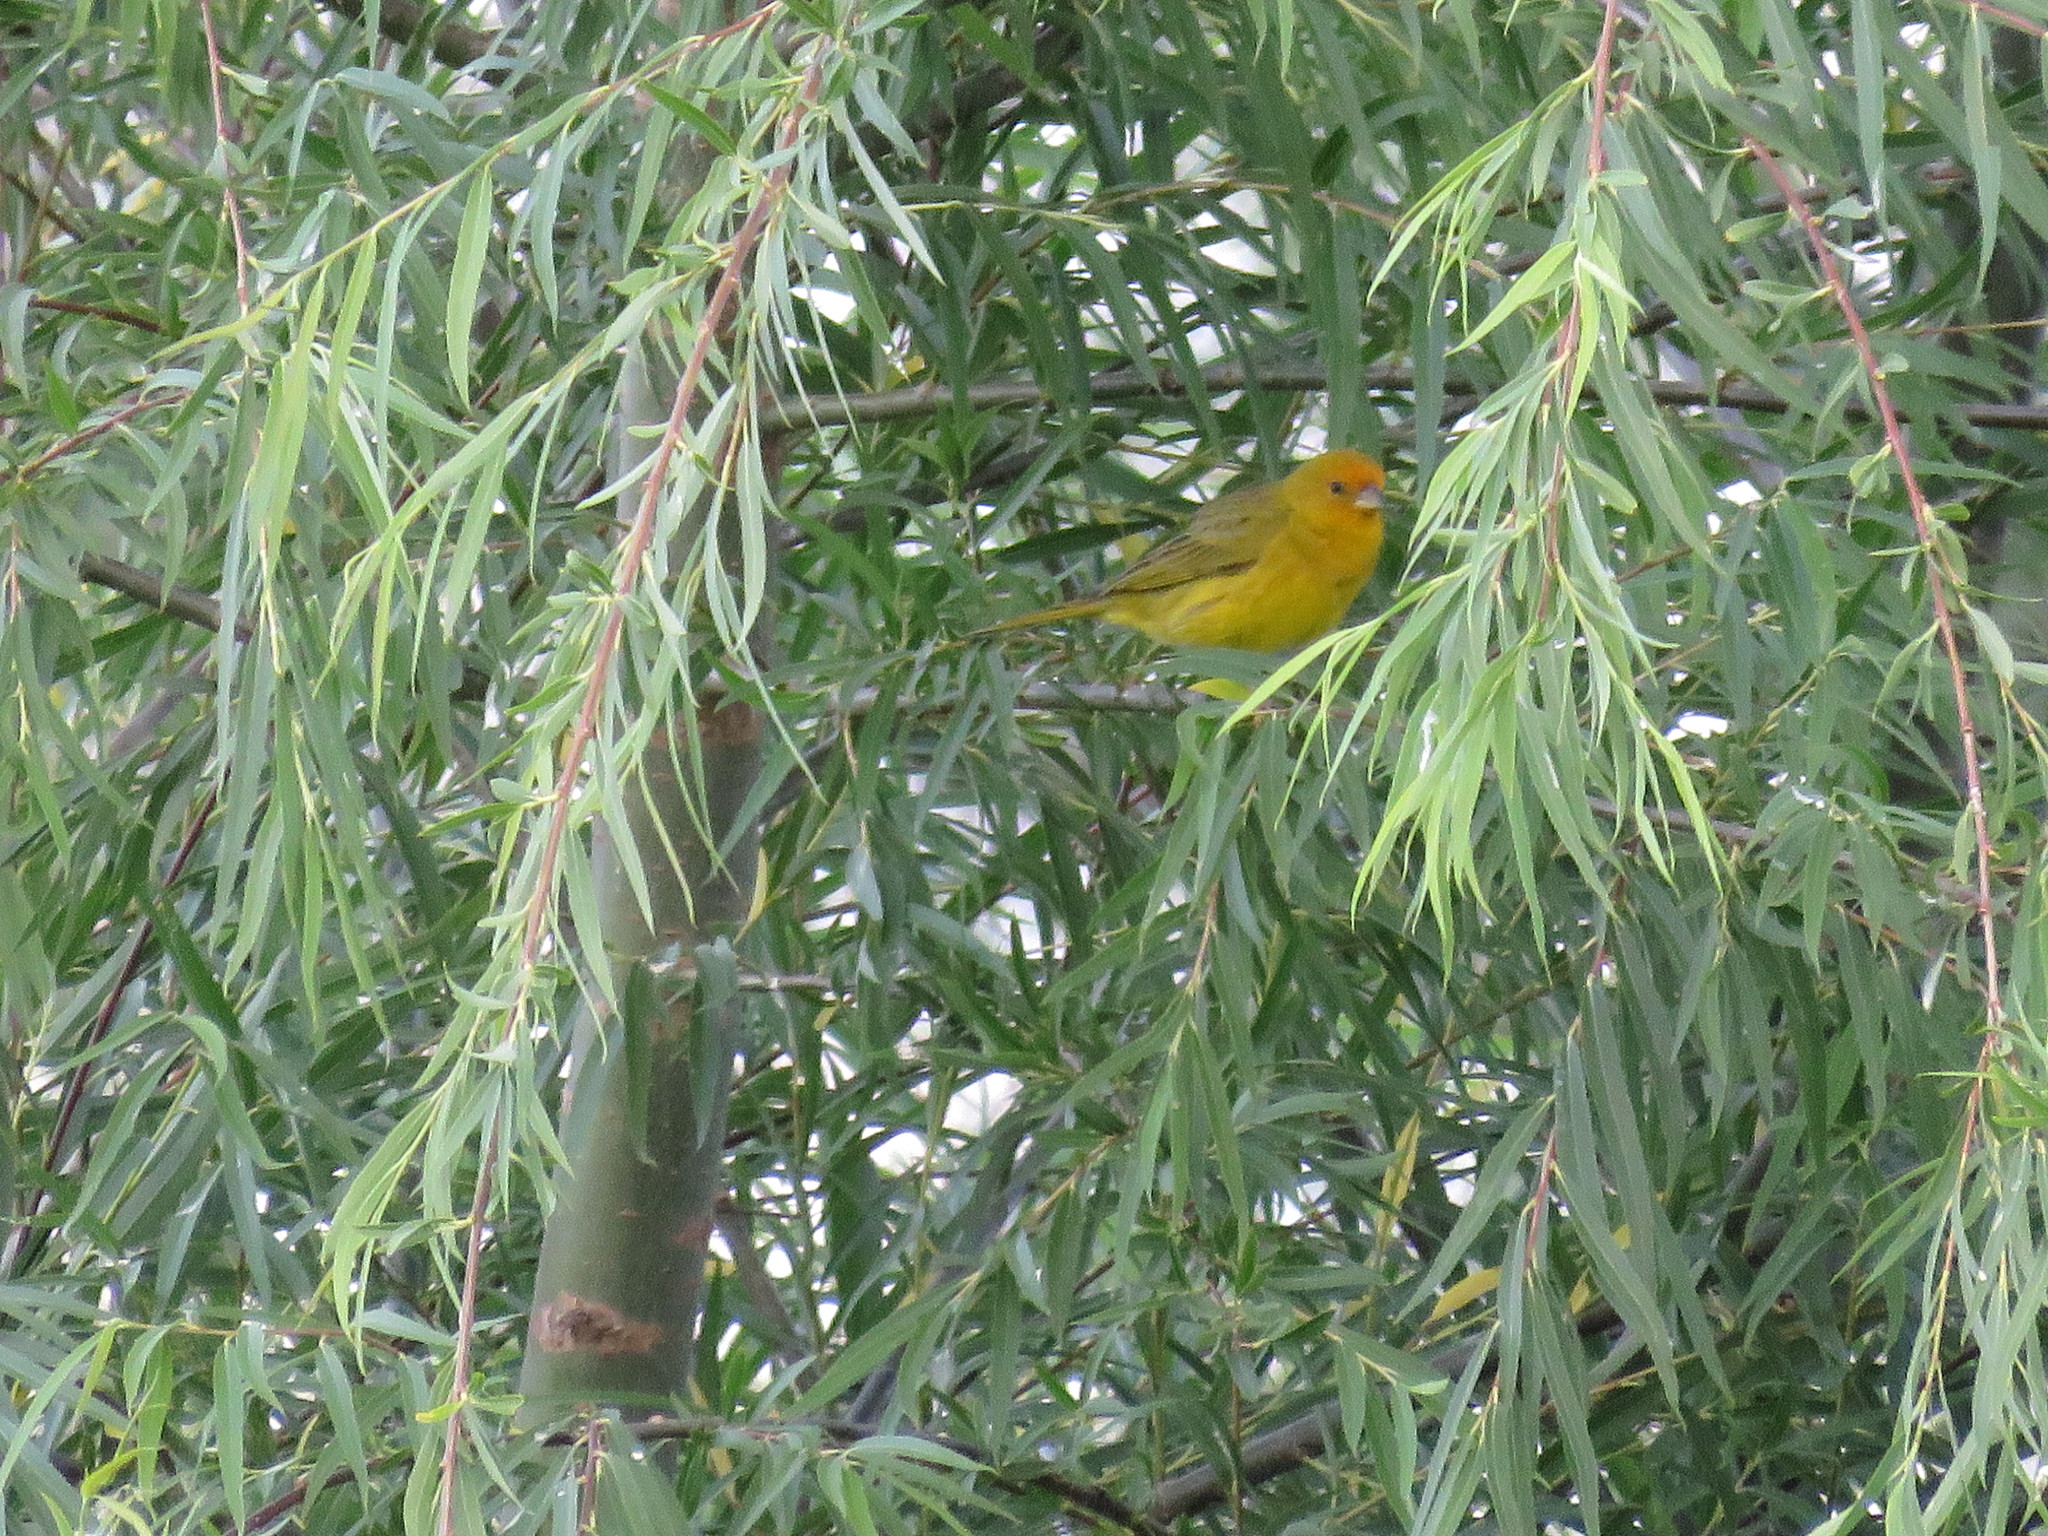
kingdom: Animalia
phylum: Chordata
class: Aves
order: Passeriformes
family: Thraupidae
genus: Sicalis
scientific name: Sicalis flaveola
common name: Saffron finch
